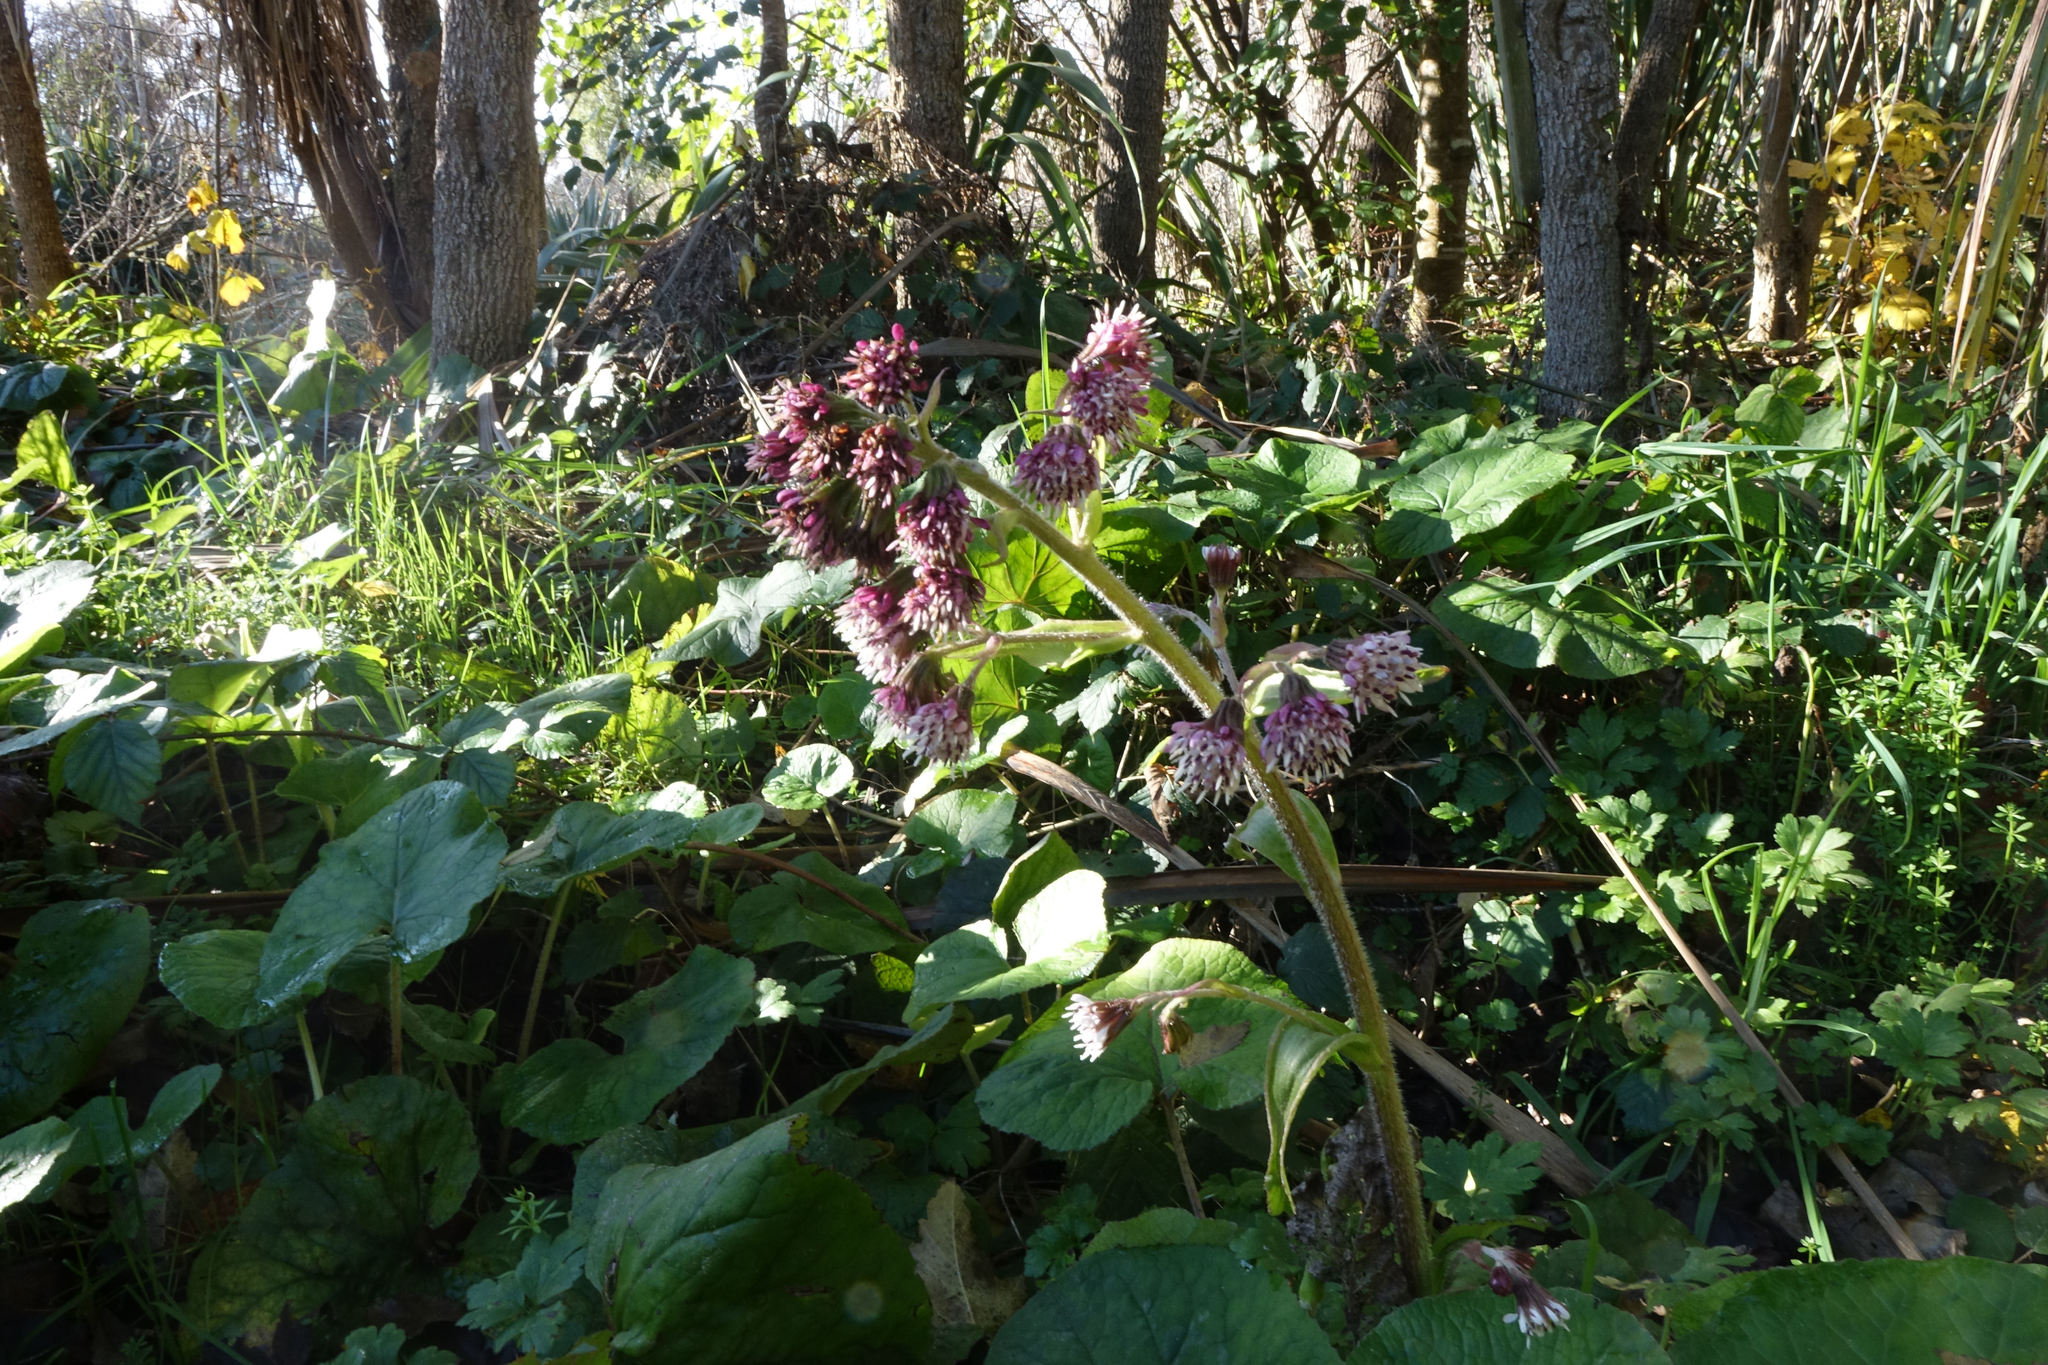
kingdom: Plantae
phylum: Tracheophyta
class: Magnoliopsida
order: Asterales
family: Asteraceae
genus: Petasites
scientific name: Petasites pyrenaicus
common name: Winter heliotrope
